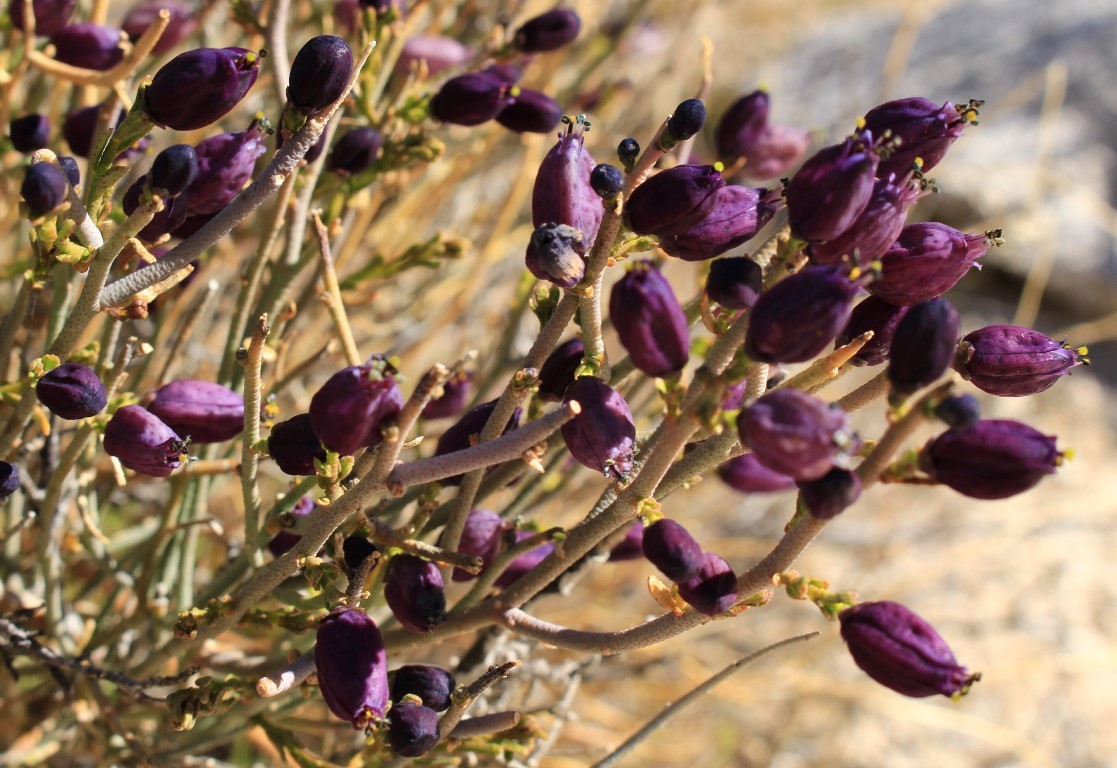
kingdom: Plantae
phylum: Tracheophyta
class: Magnoliopsida
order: Sapindales
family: Rutaceae
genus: Thamnosma
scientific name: Thamnosma montana
